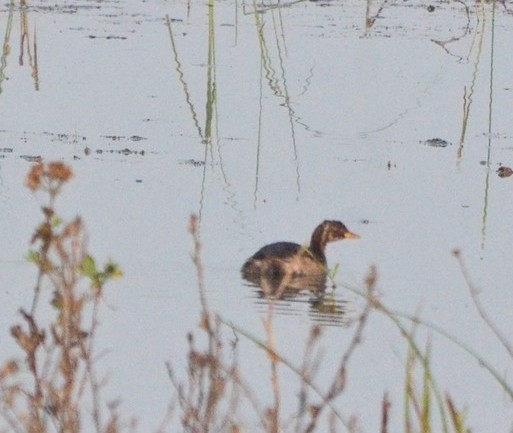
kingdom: Animalia
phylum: Chordata
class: Aves
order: Podicipediformes
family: Podicipedidae
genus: Tachybaptus
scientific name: Tachybaptus ruficollis
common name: Little grebe
